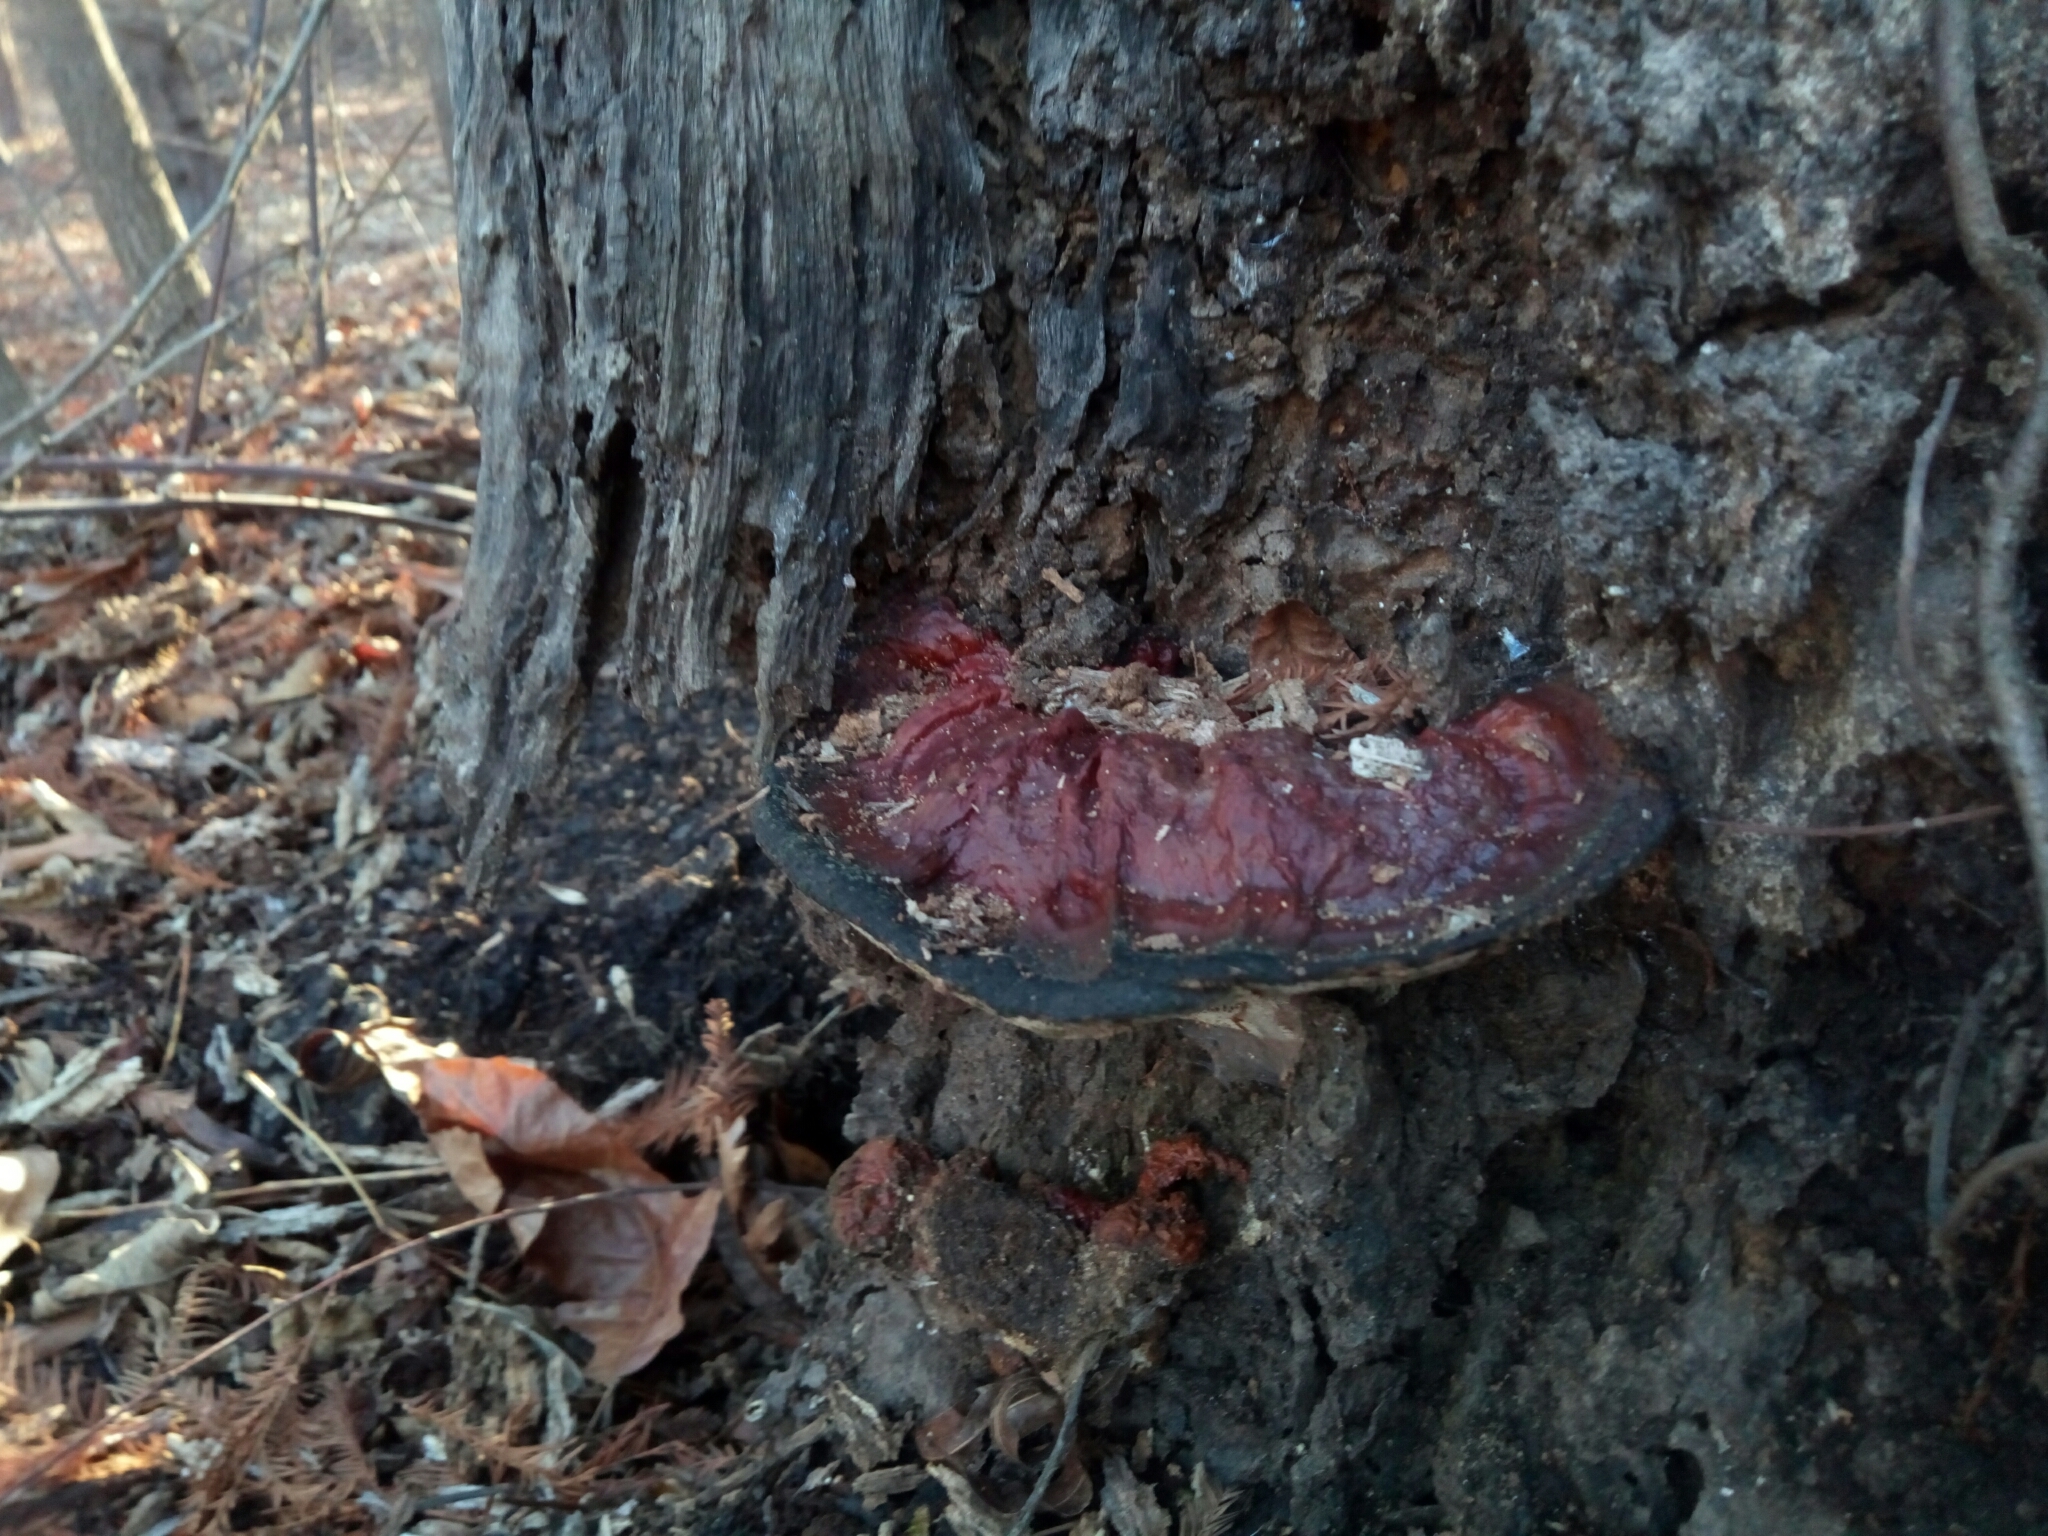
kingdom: Fungi
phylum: Basidiomycota
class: Agaricomycetes
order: Polyporales
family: Polyporaceae
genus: Ganoderma
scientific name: Ganoderma resinaceum
